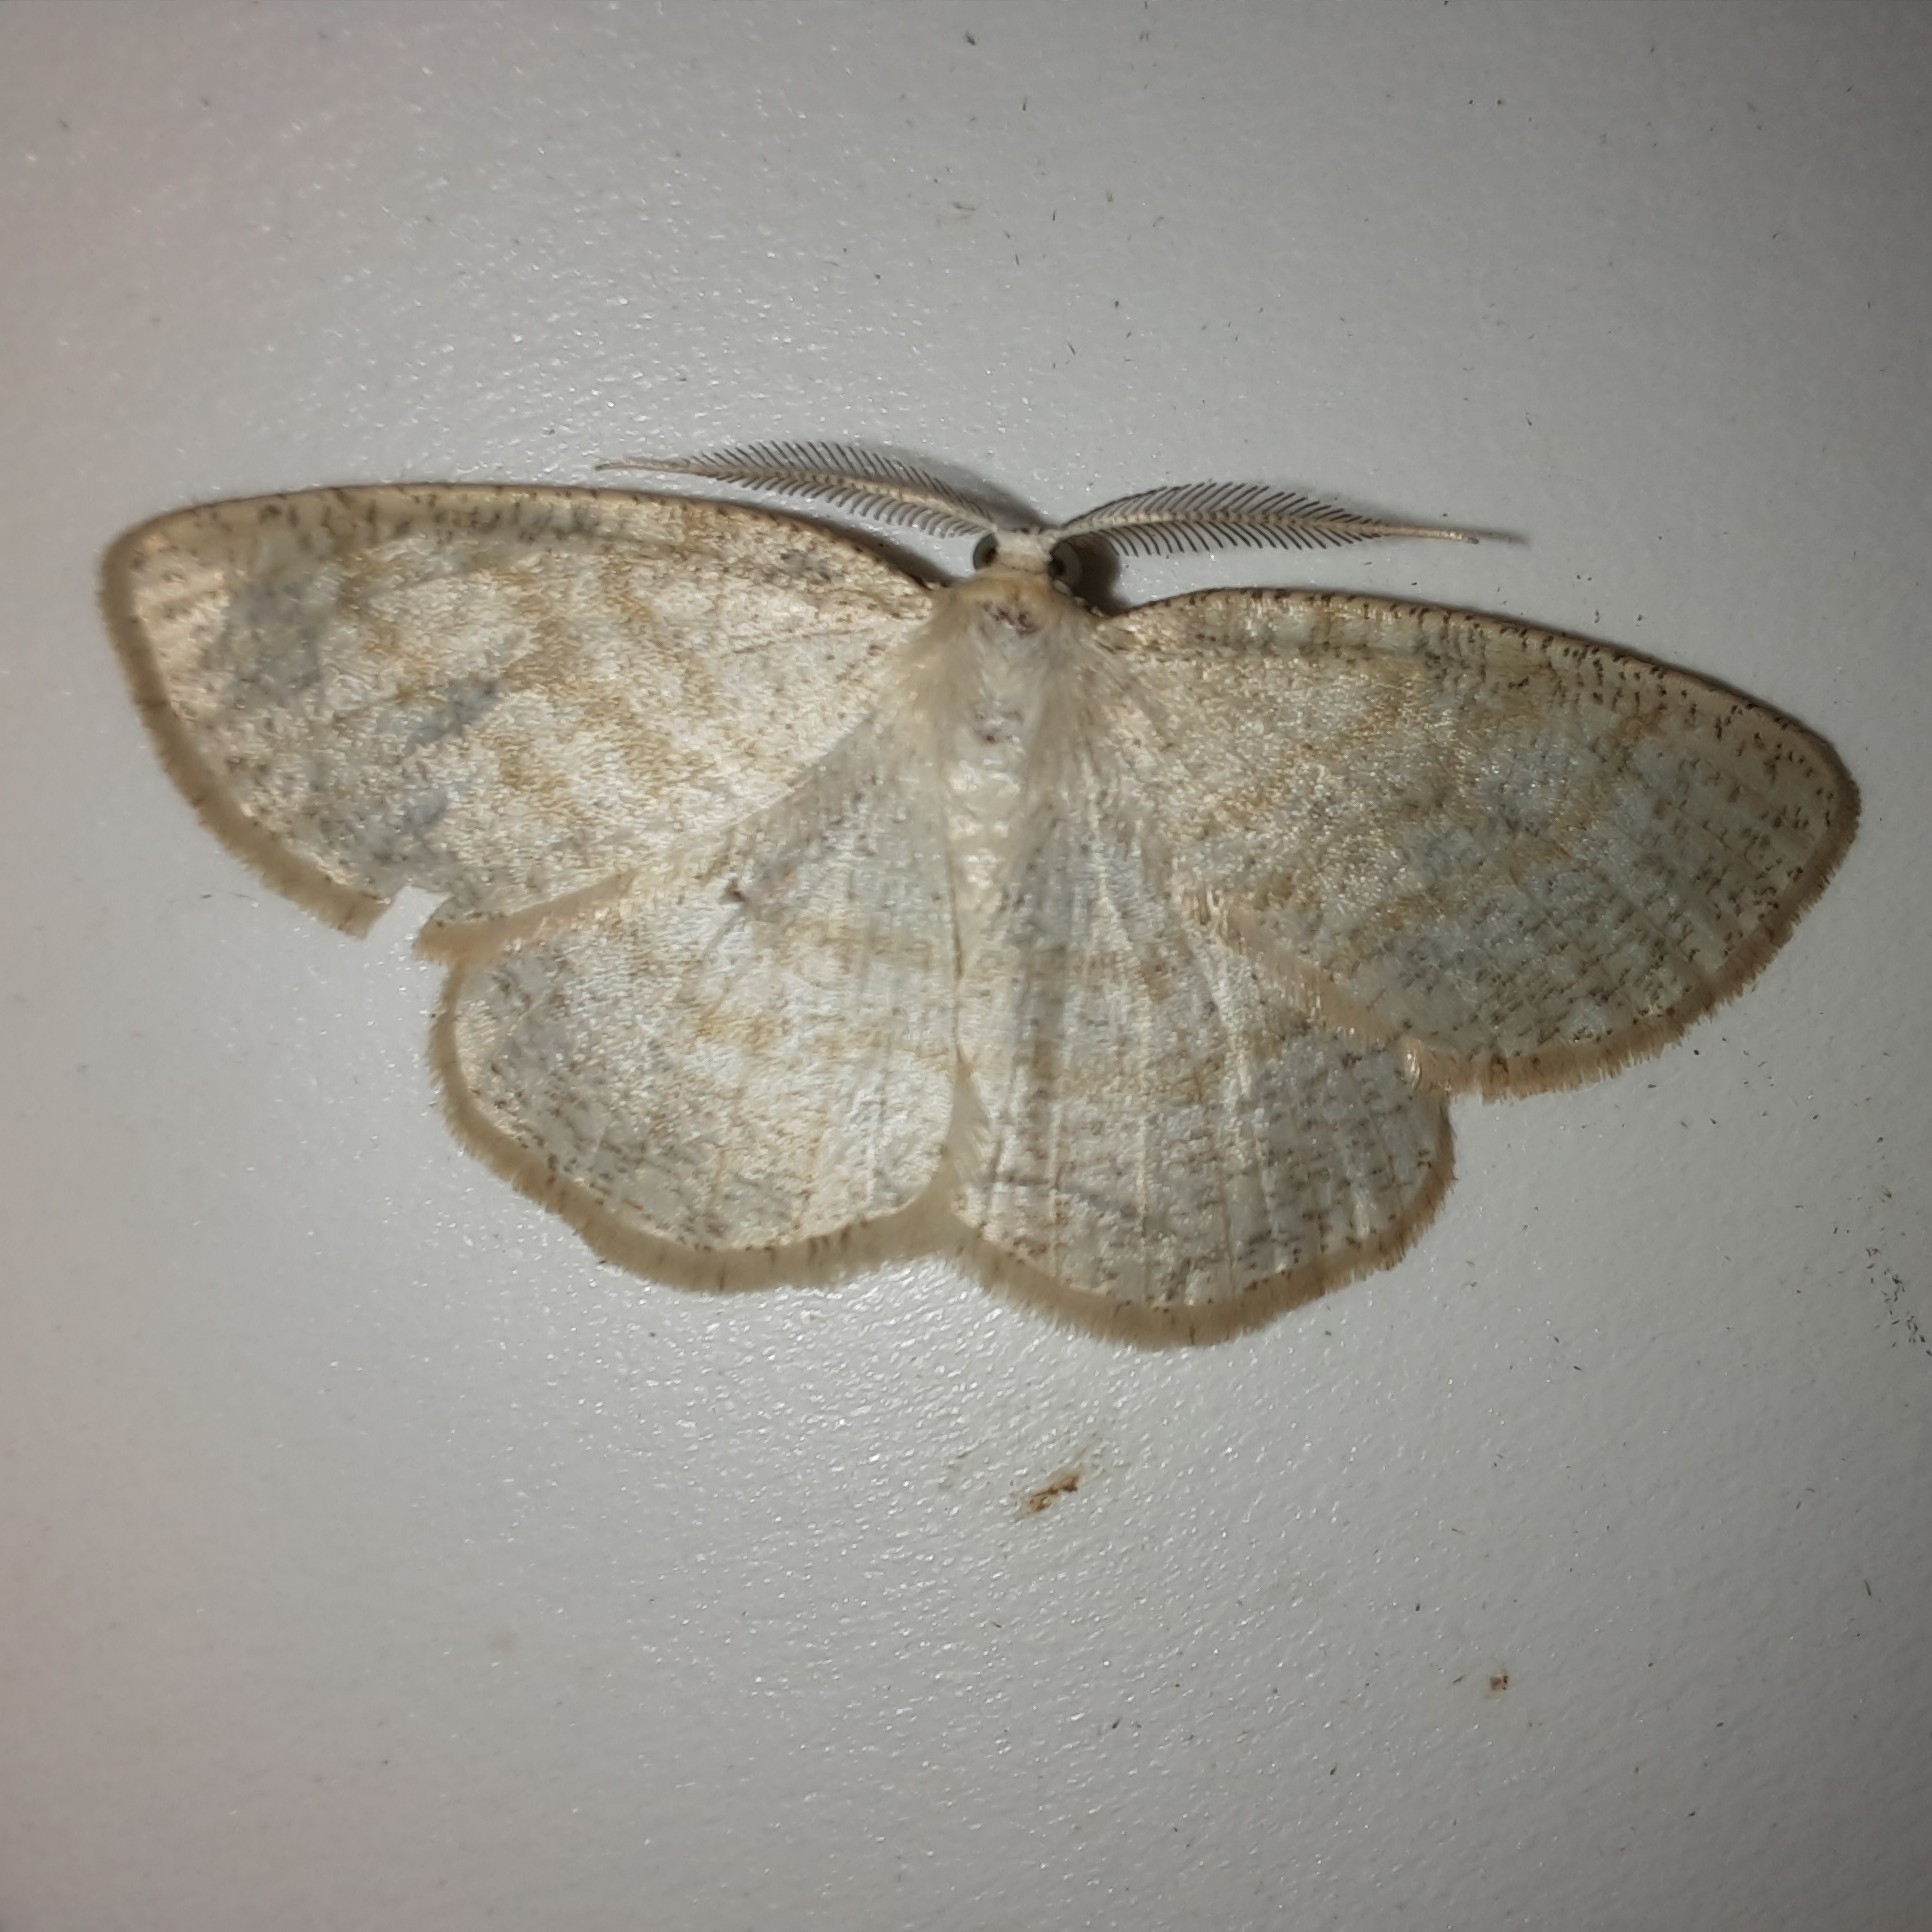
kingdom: Animalia
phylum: Arthropoda
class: Insecta
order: Lepidoptera
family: Geometridae
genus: Cabera
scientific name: Cabera exanthemata
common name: Common wave
